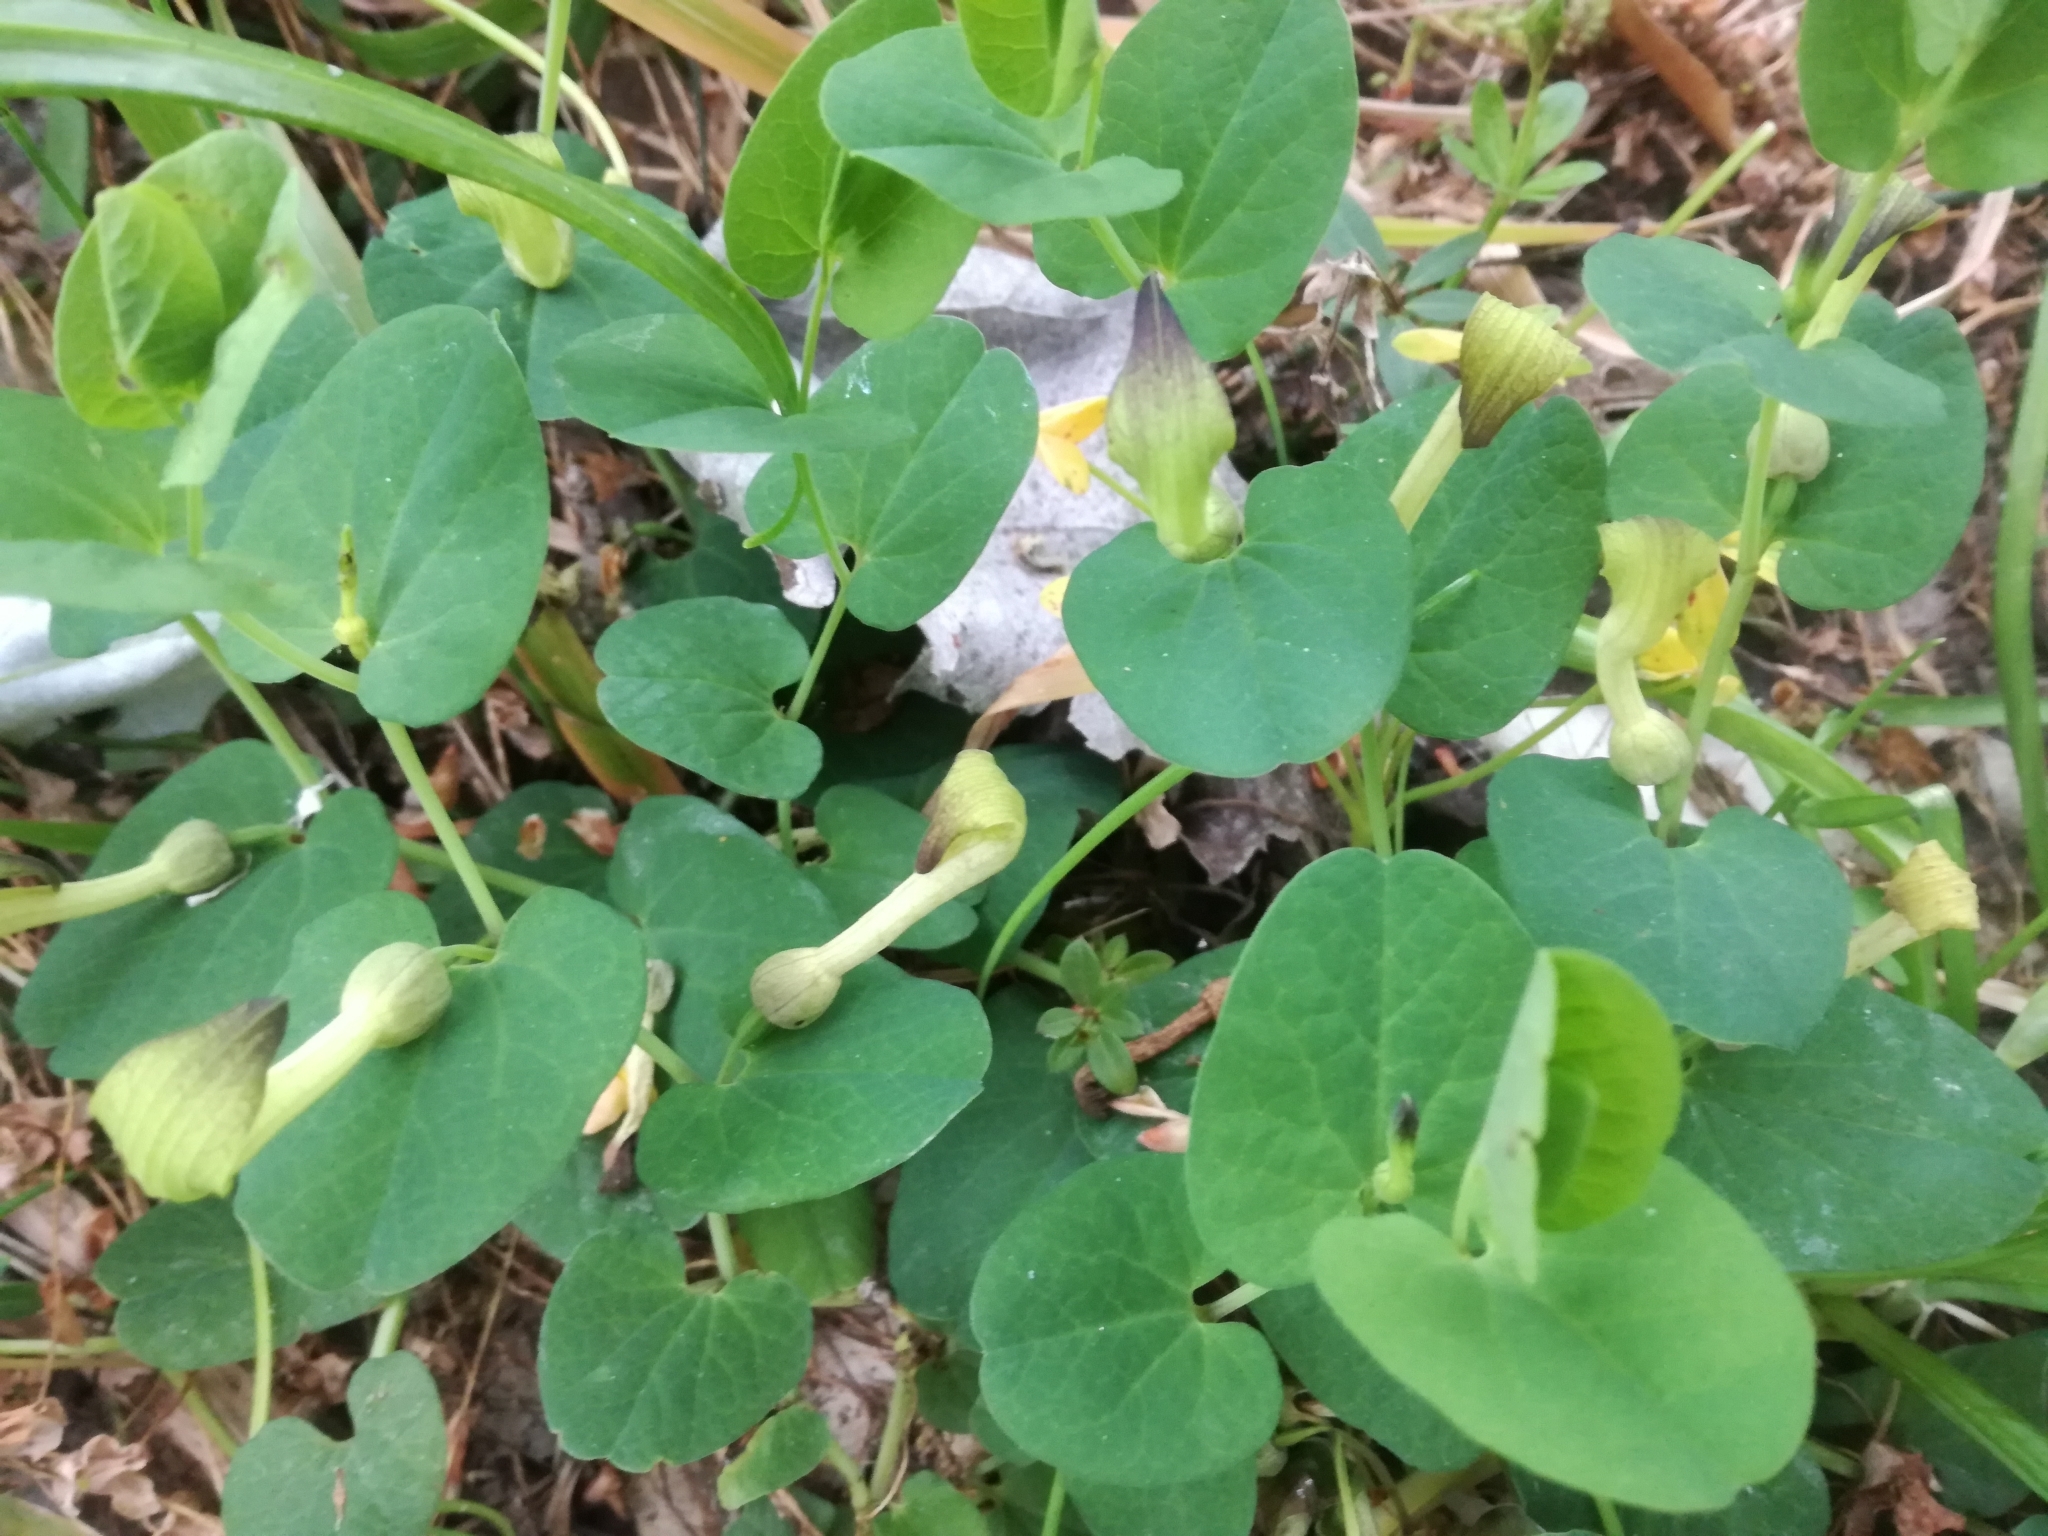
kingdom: Plantae
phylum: Tracheophyta
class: Magnoliopsida
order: Piperales
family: Aristolochiaceae
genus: Aristolochia
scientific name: Aristolochia navicularis
